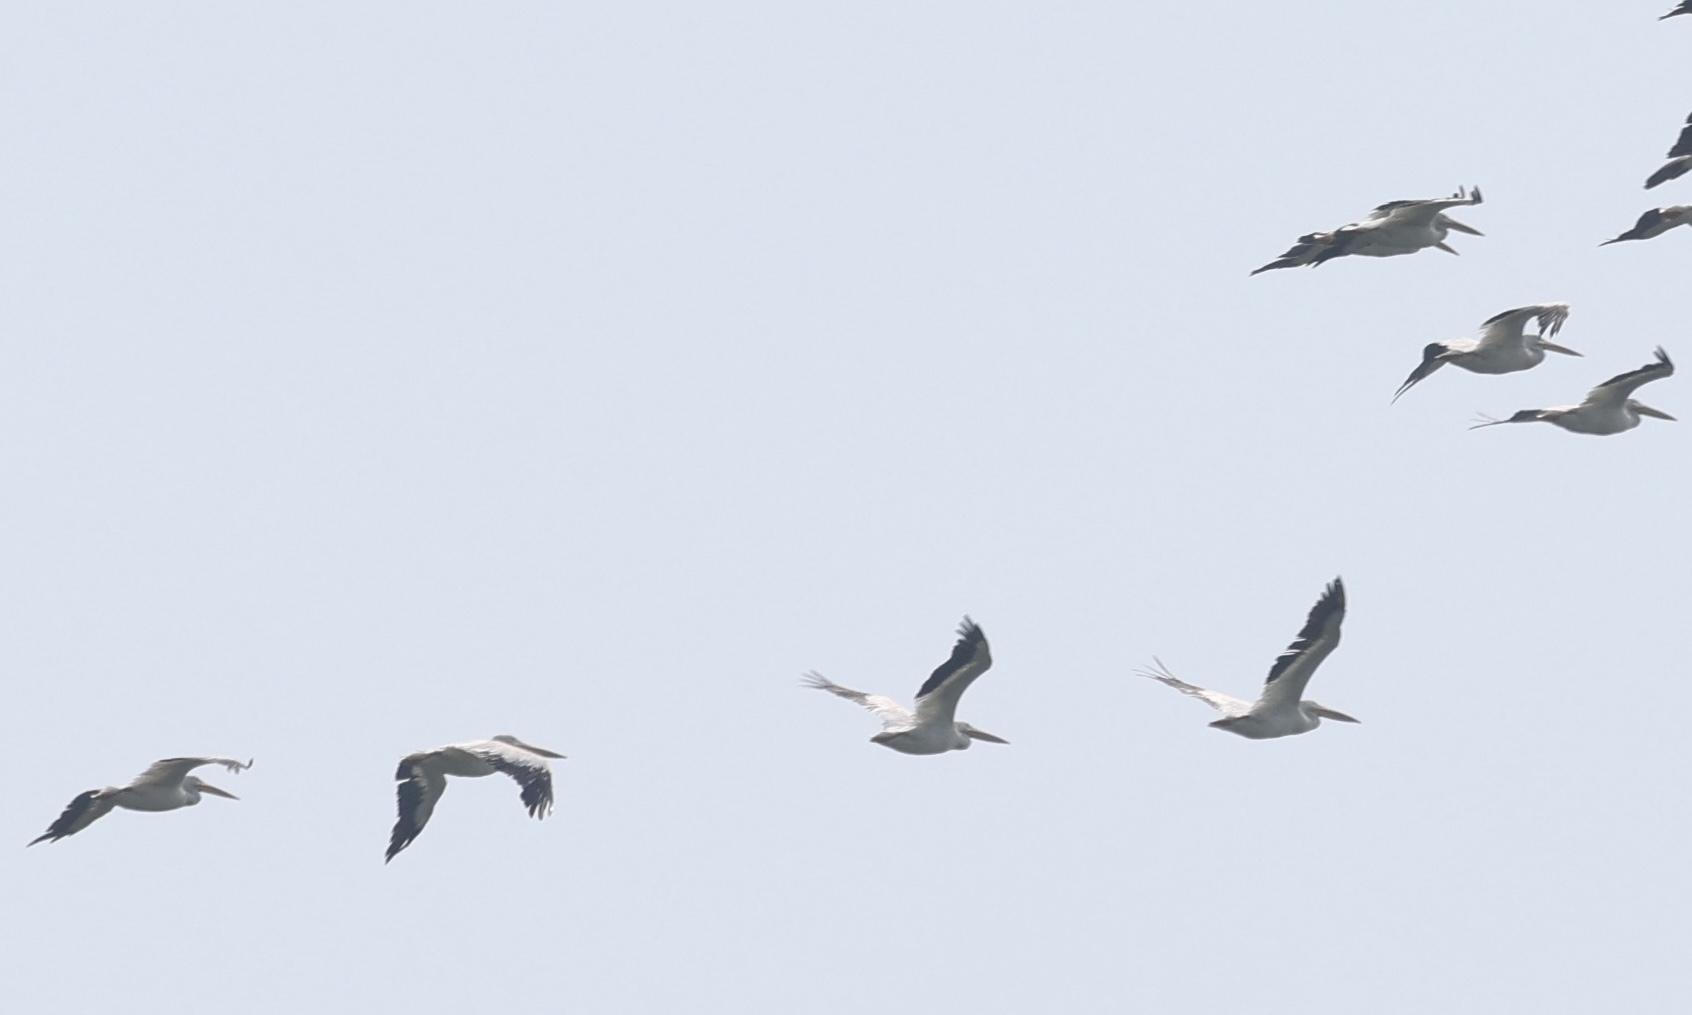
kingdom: Animalia
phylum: Chordata
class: Aves
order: Pelecaniformes
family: Pelecanidae
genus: Pelecanus
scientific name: Pelecanus erythrorhynchos
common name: American white pelican
